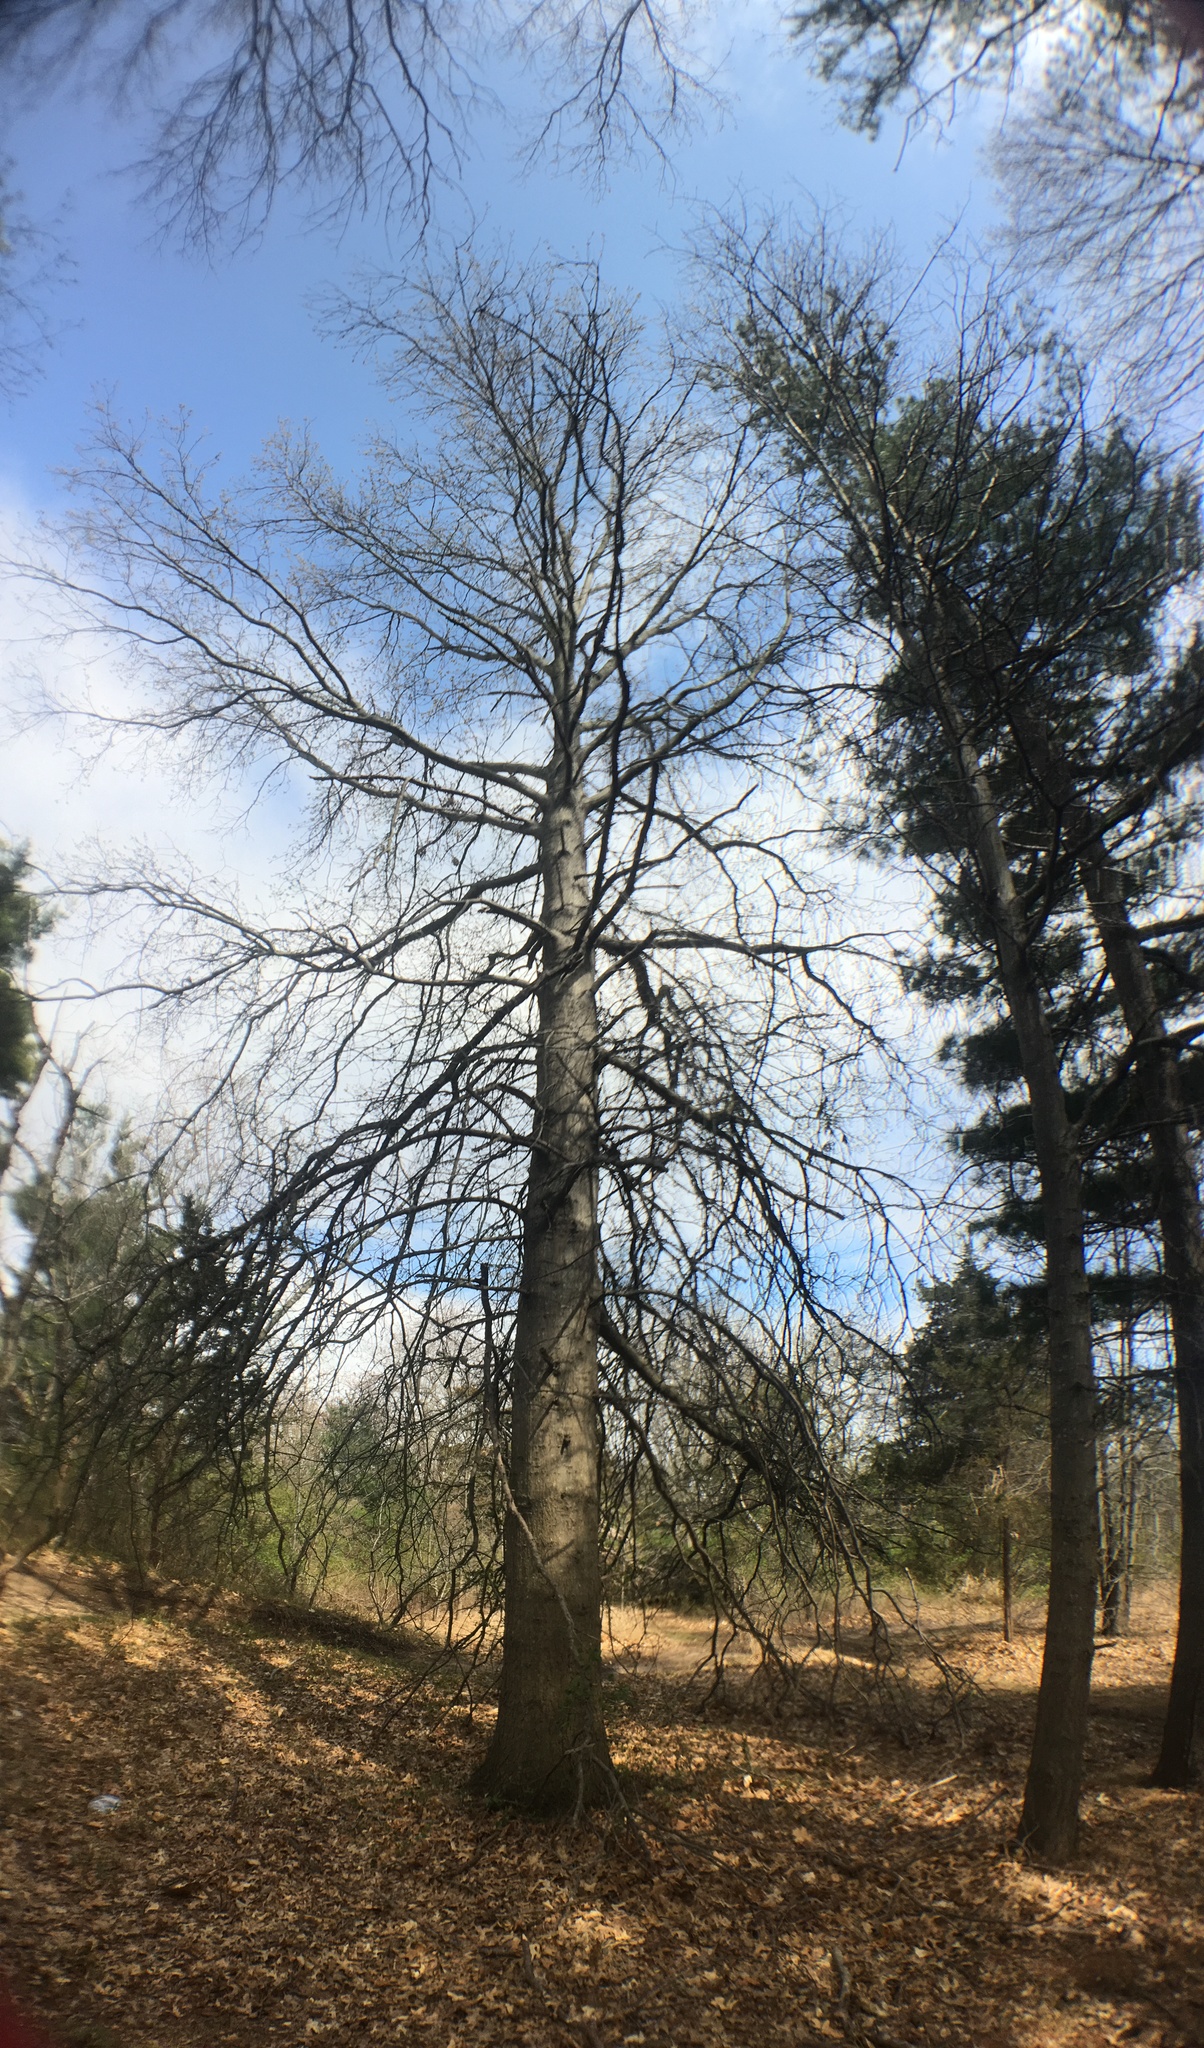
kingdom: Plantae
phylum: Tracheophyta
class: Magnoliopsida
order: Fagales
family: Fagaceae
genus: Quercus
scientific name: Quercus palustris
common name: Pin oak
